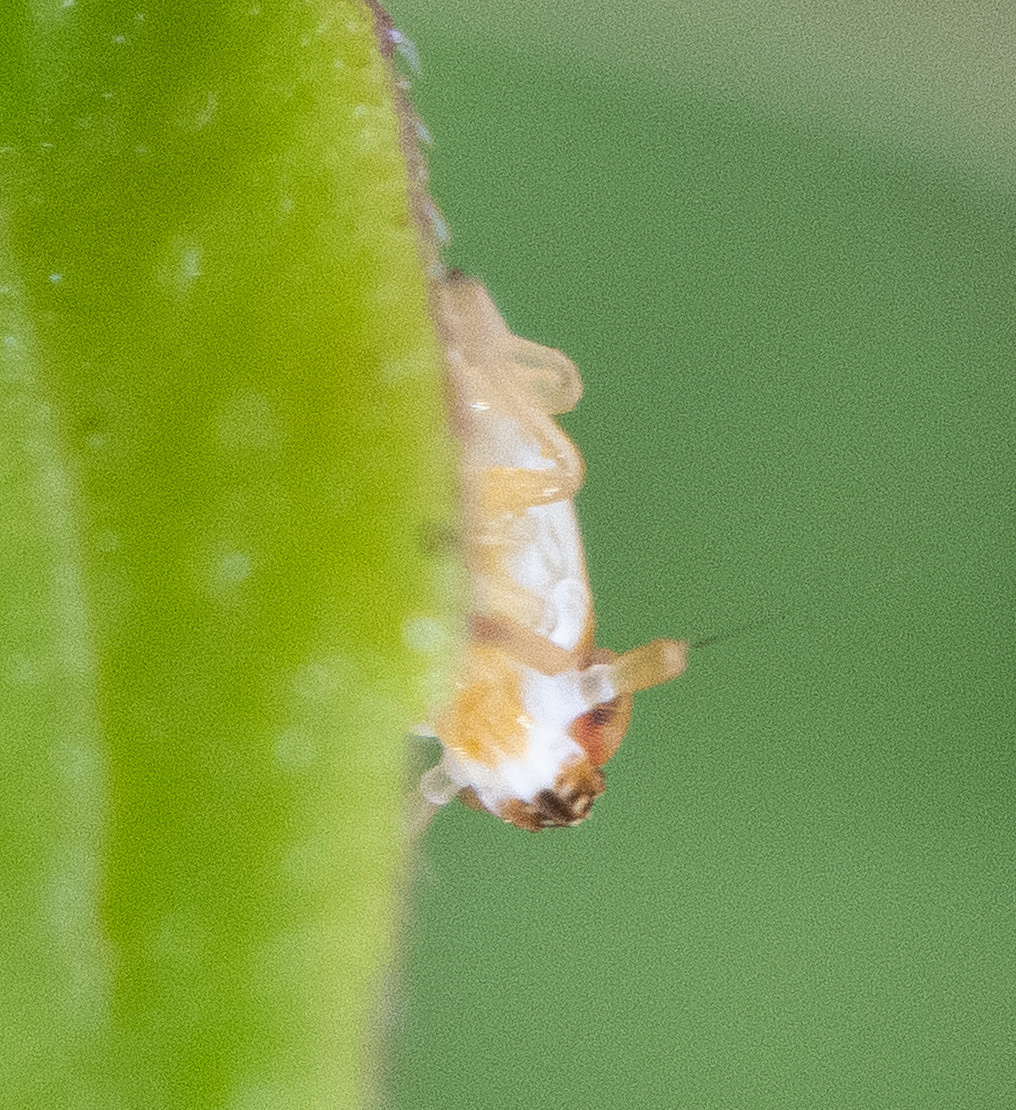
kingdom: Animalia
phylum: Arthropoda
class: Insecta
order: Hemiptera
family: Delphacidae
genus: Liburniella
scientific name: Liburniella ornata
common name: Ornate planthopper
